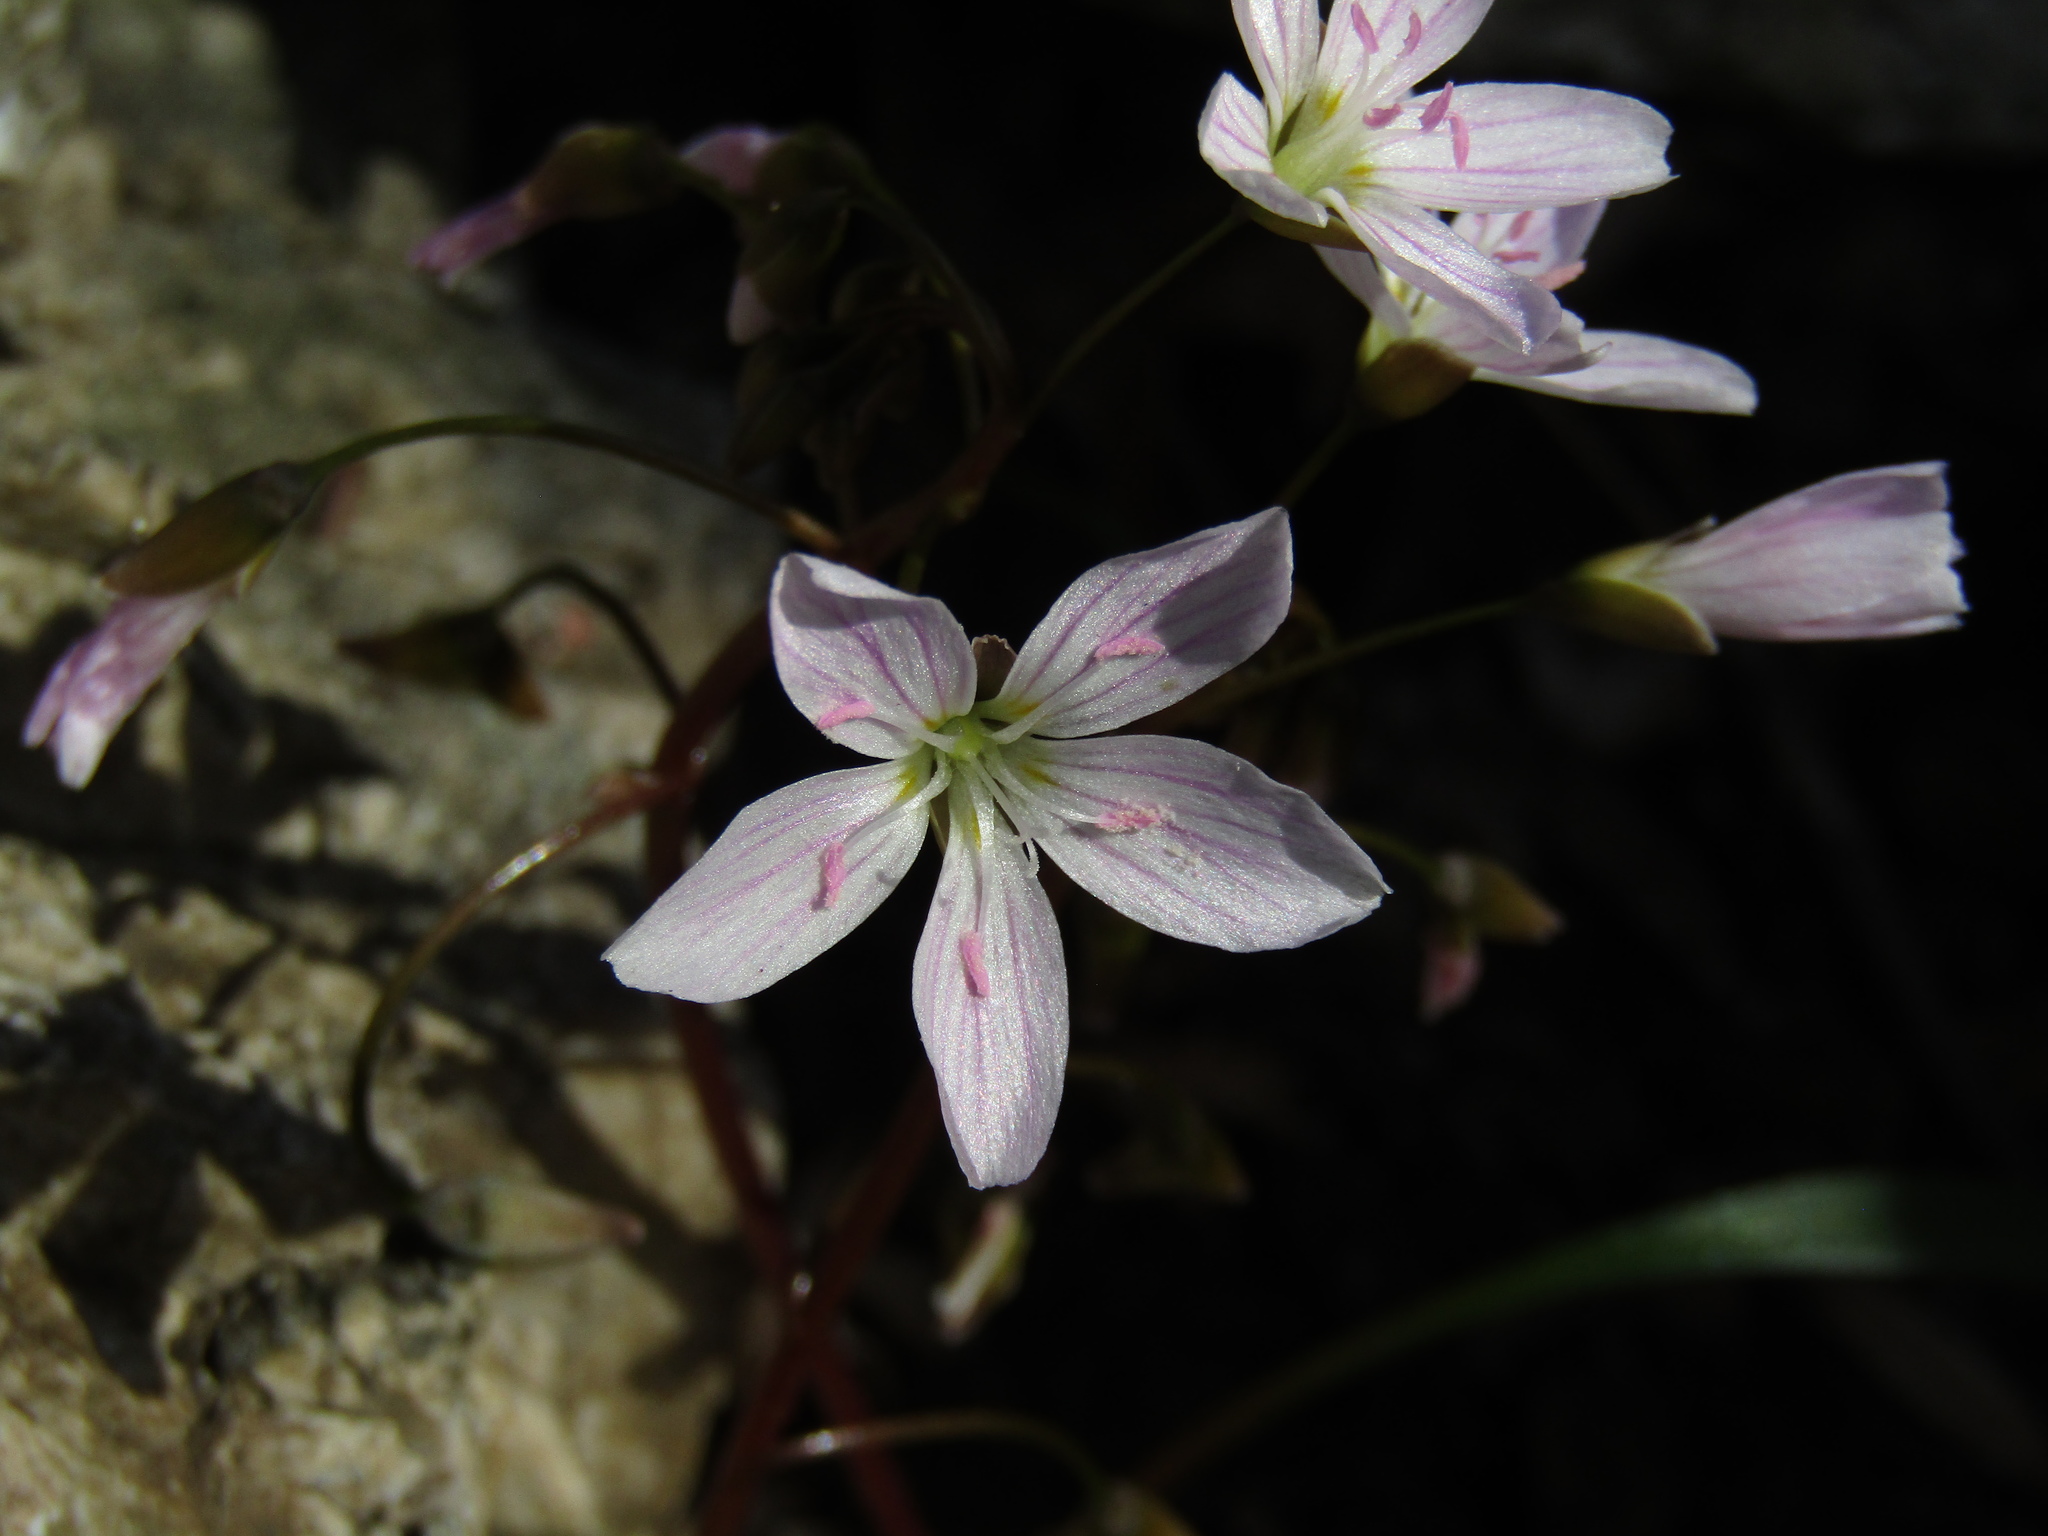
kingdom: Plantae
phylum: Tracheophyta
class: Magnoliopsida
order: Caryophyllales
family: Montiaceae
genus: Claytonia
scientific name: Claytonia virginica
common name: Virginia springbeauty
